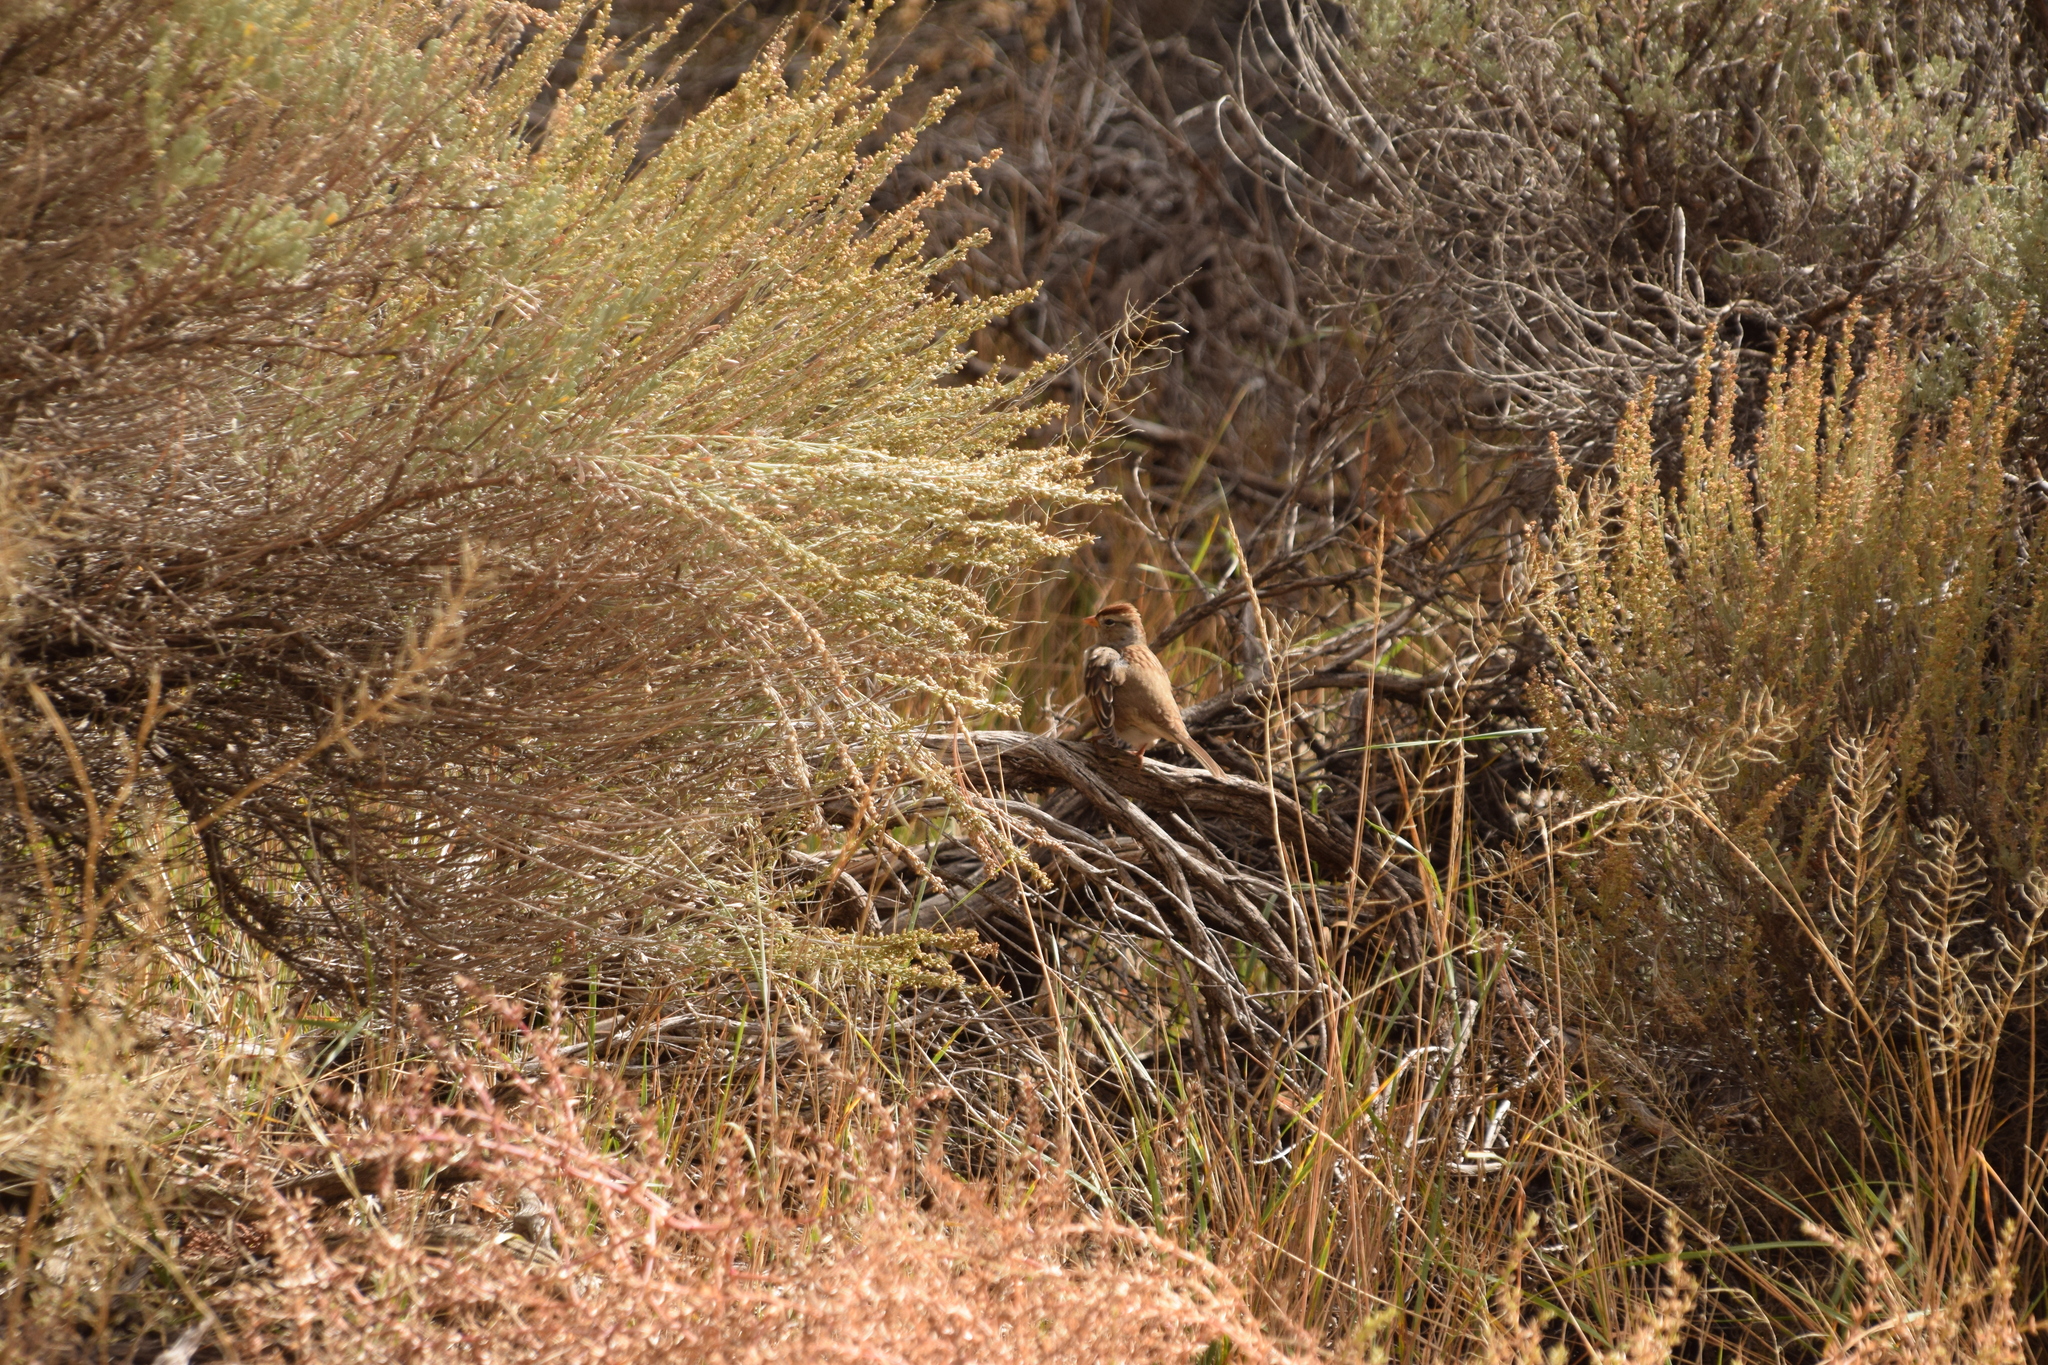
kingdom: Animalia
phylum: Chordata
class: Aves
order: Passeriformes
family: Passerellidae
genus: Zonotrichia
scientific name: Zonotrichia leucophrys
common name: White-crowned sparrow
